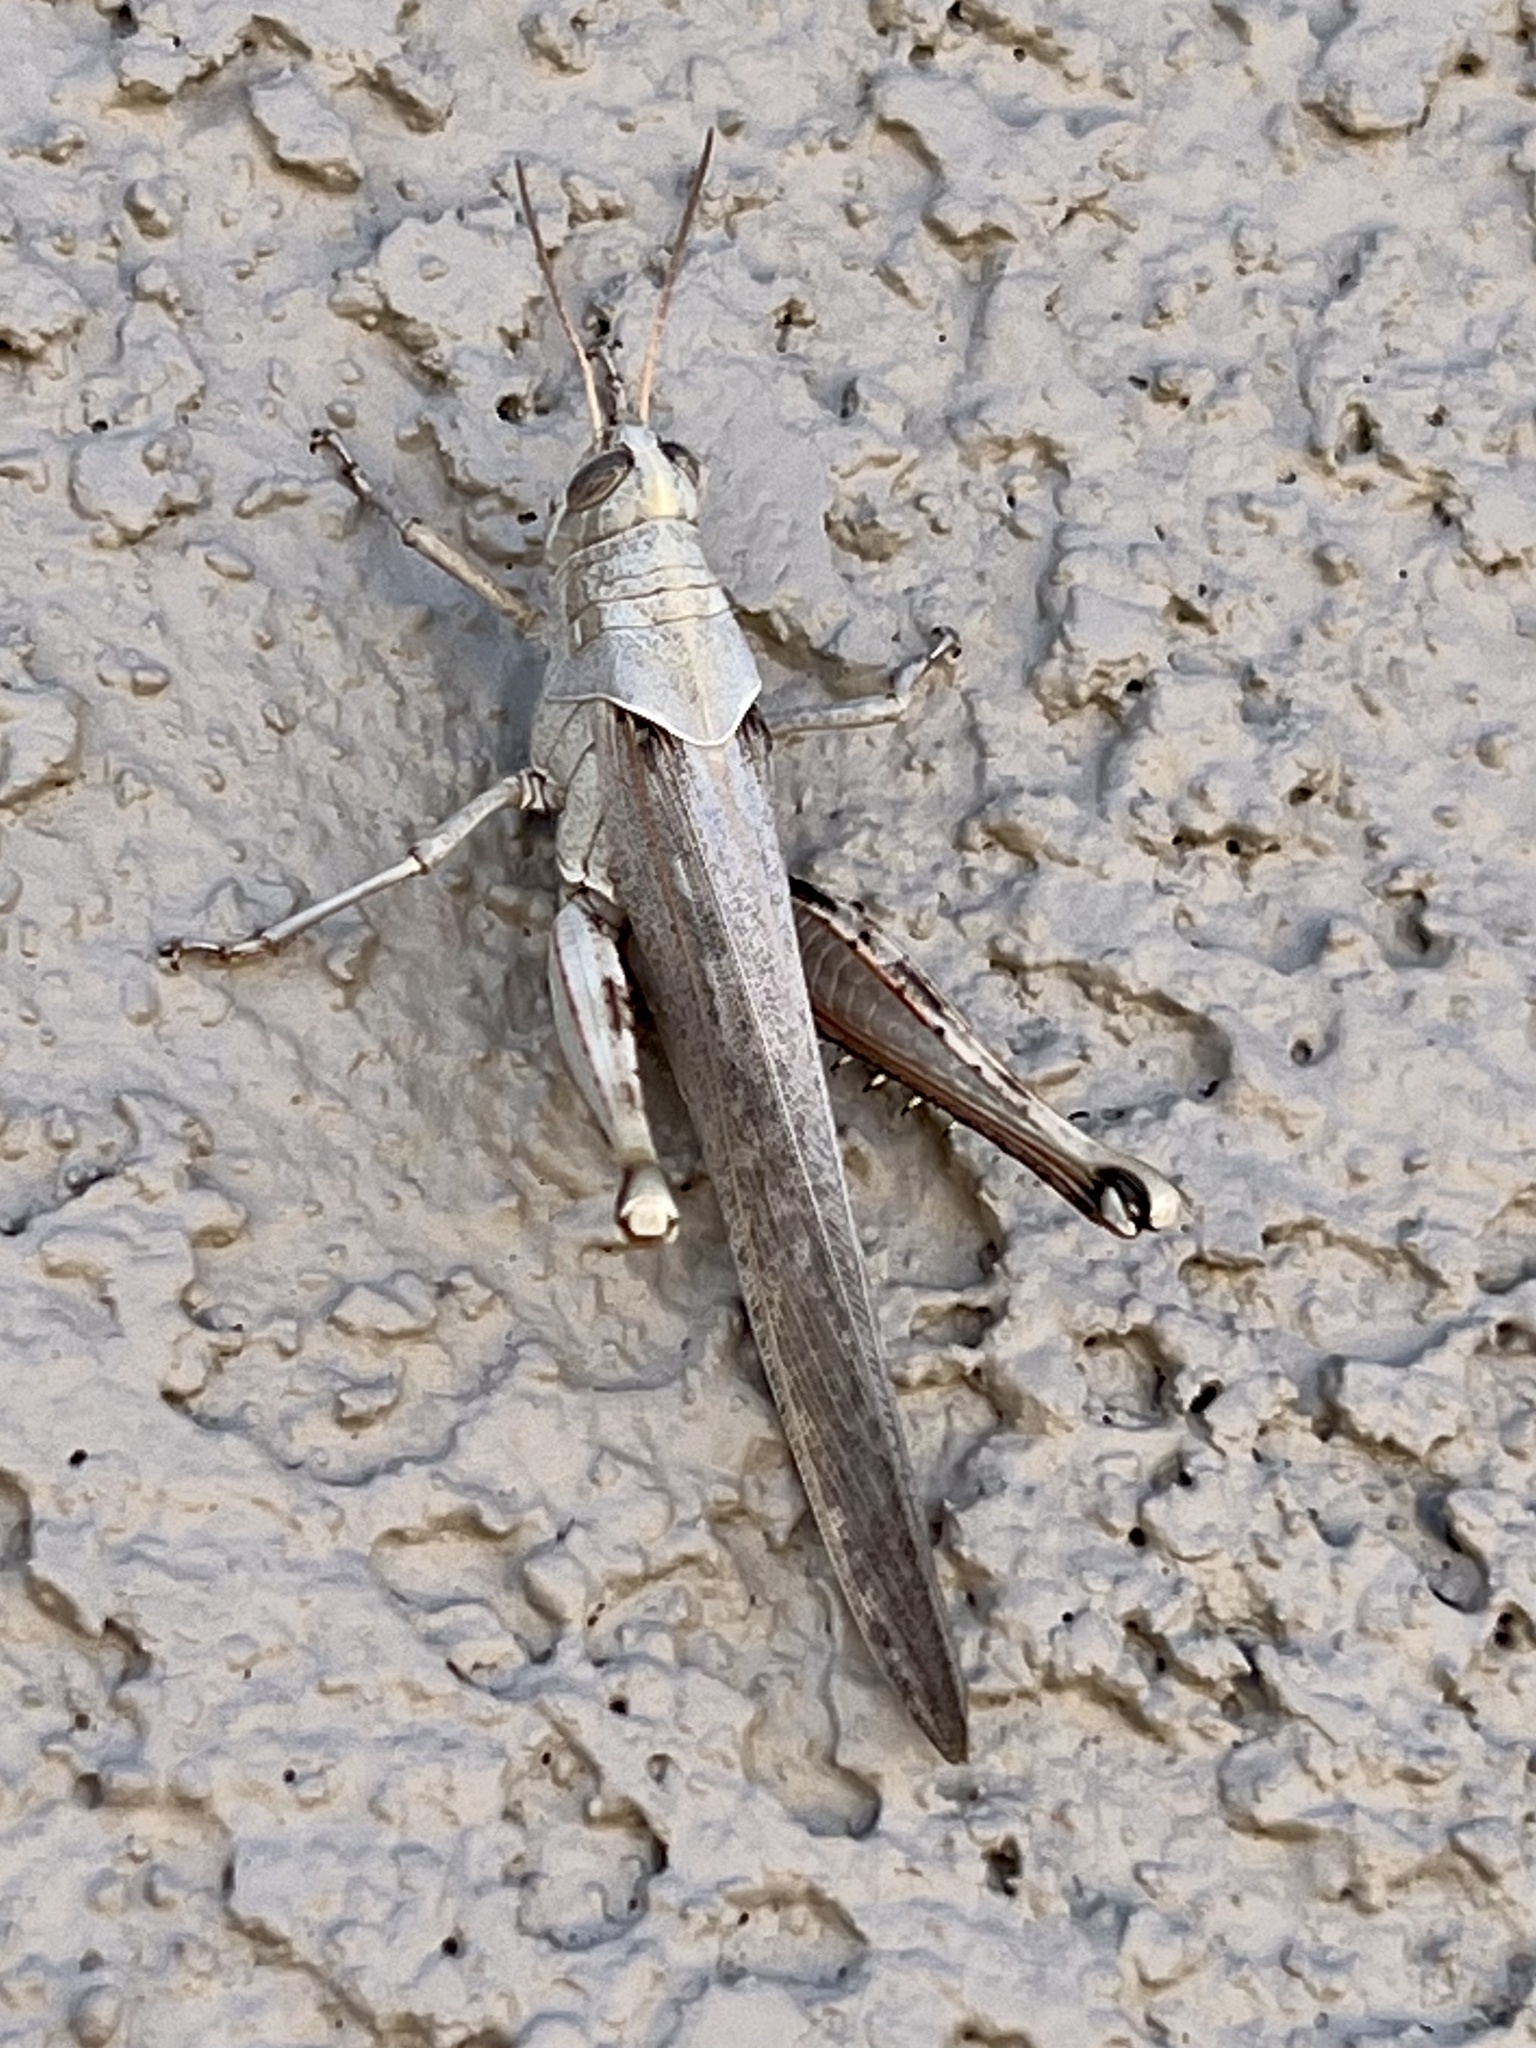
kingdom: Animalia
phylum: Arthropoda
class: Insecta
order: Orthoptera
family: Acrididae
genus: Schistocerca
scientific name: Schistocerca nitens
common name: Vagrant grasshopper
